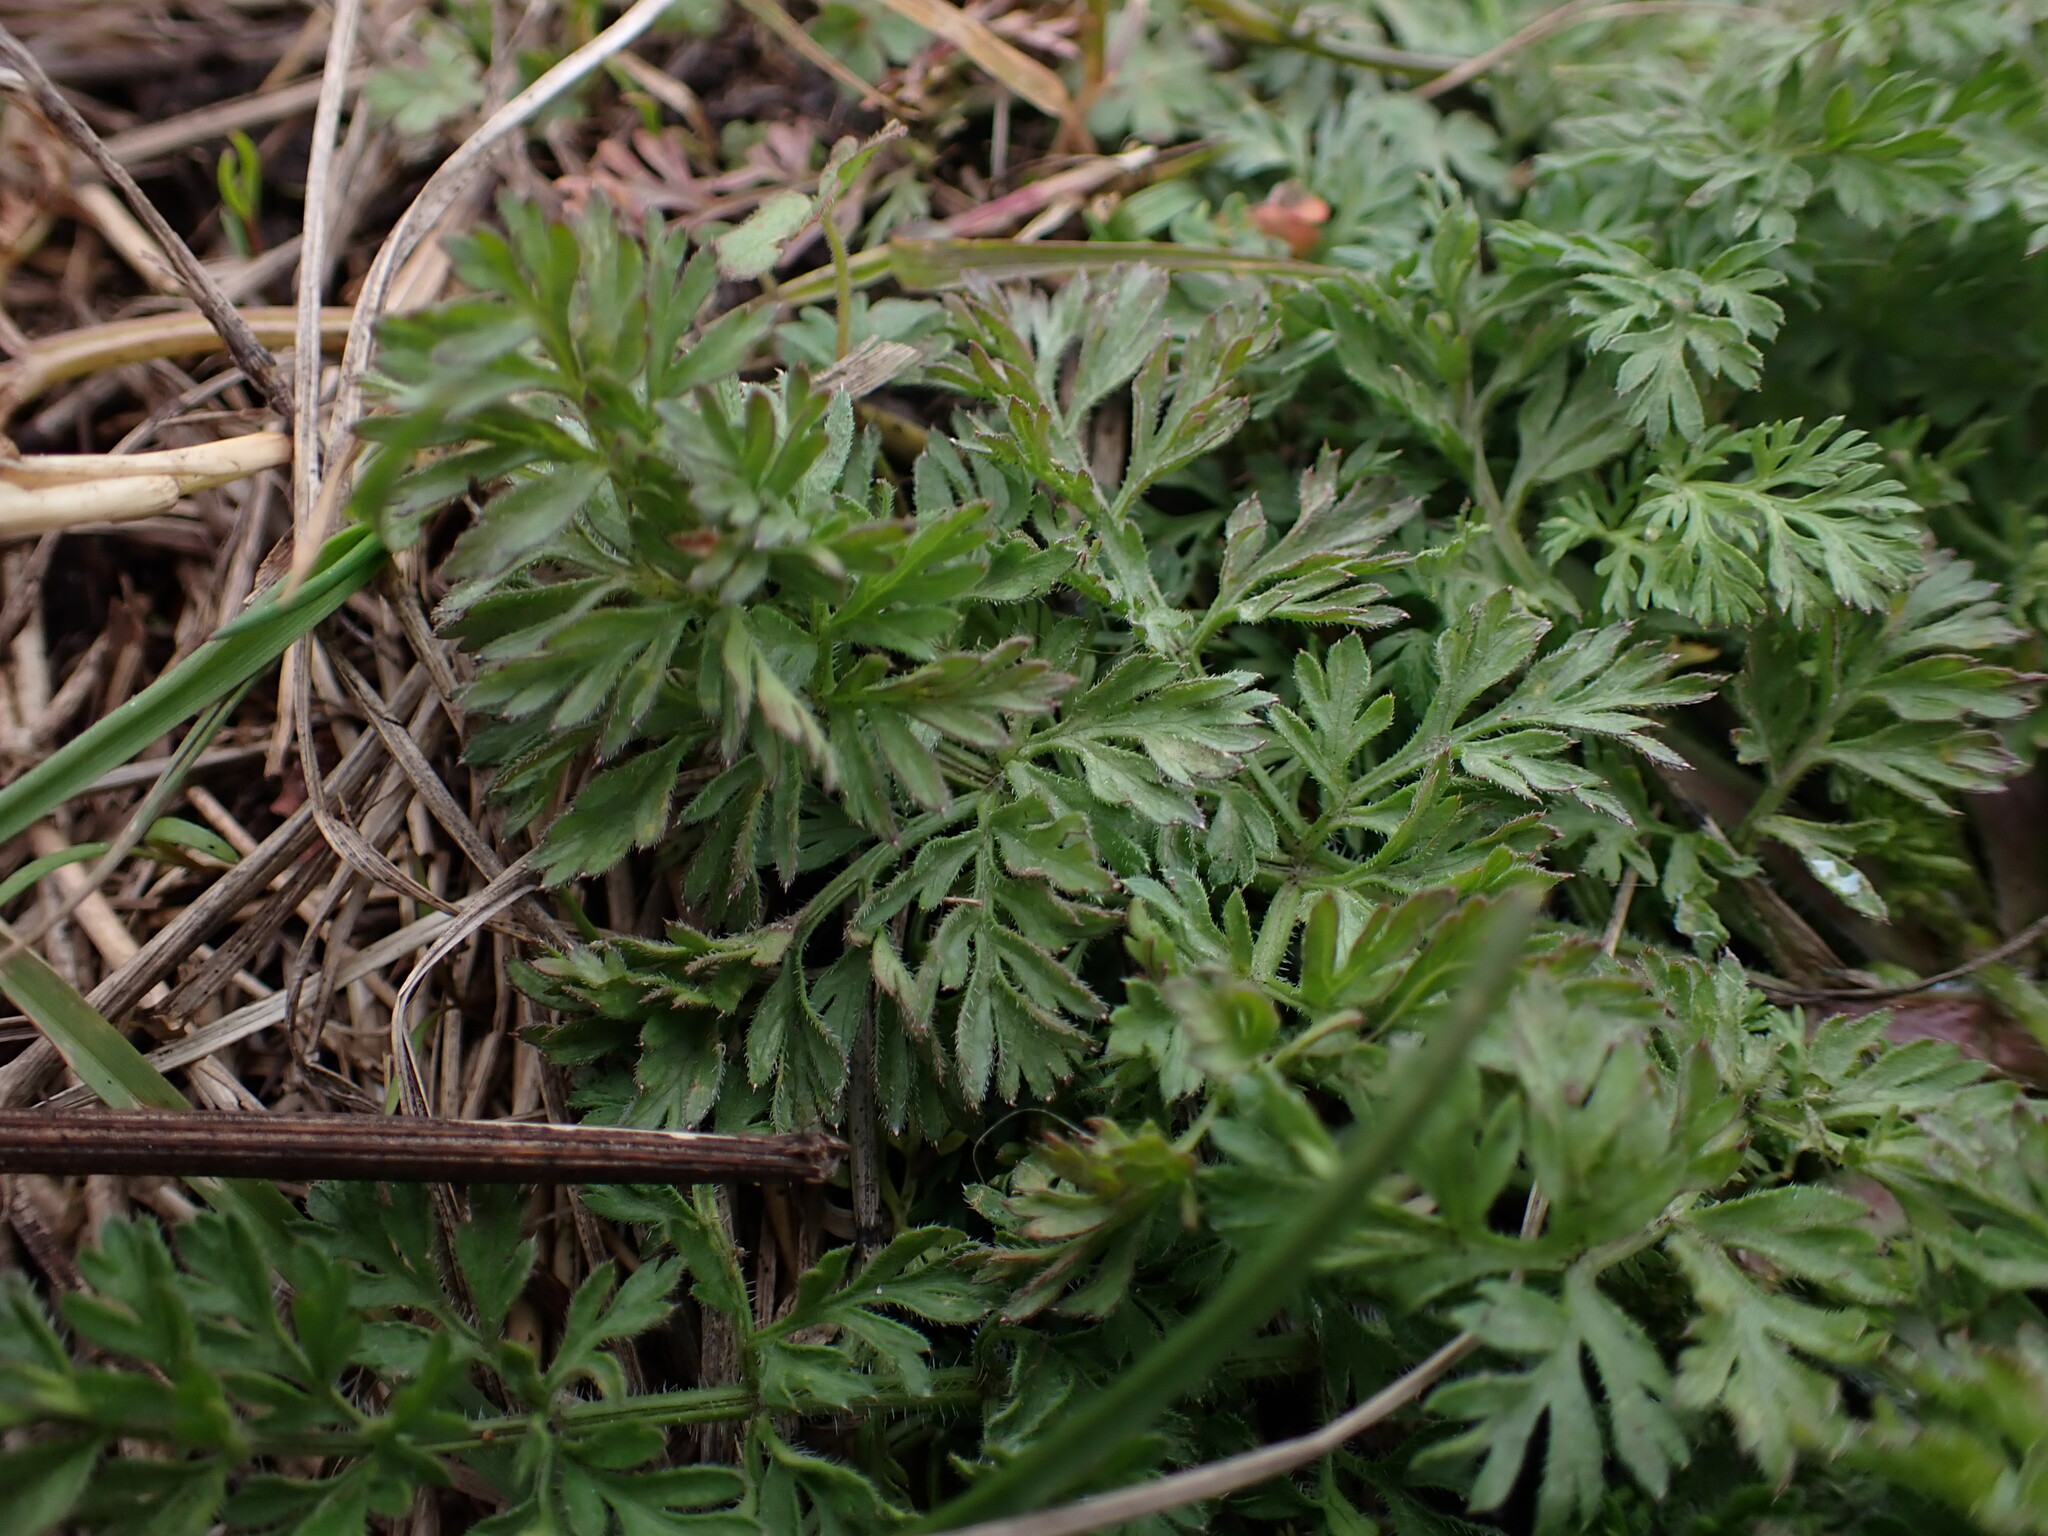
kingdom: Plantae
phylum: Tracheophyta
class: Magnoliopsida
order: Apiales
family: Apiaceae
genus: Daucus
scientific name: Daucus carota
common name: Wild carrot
